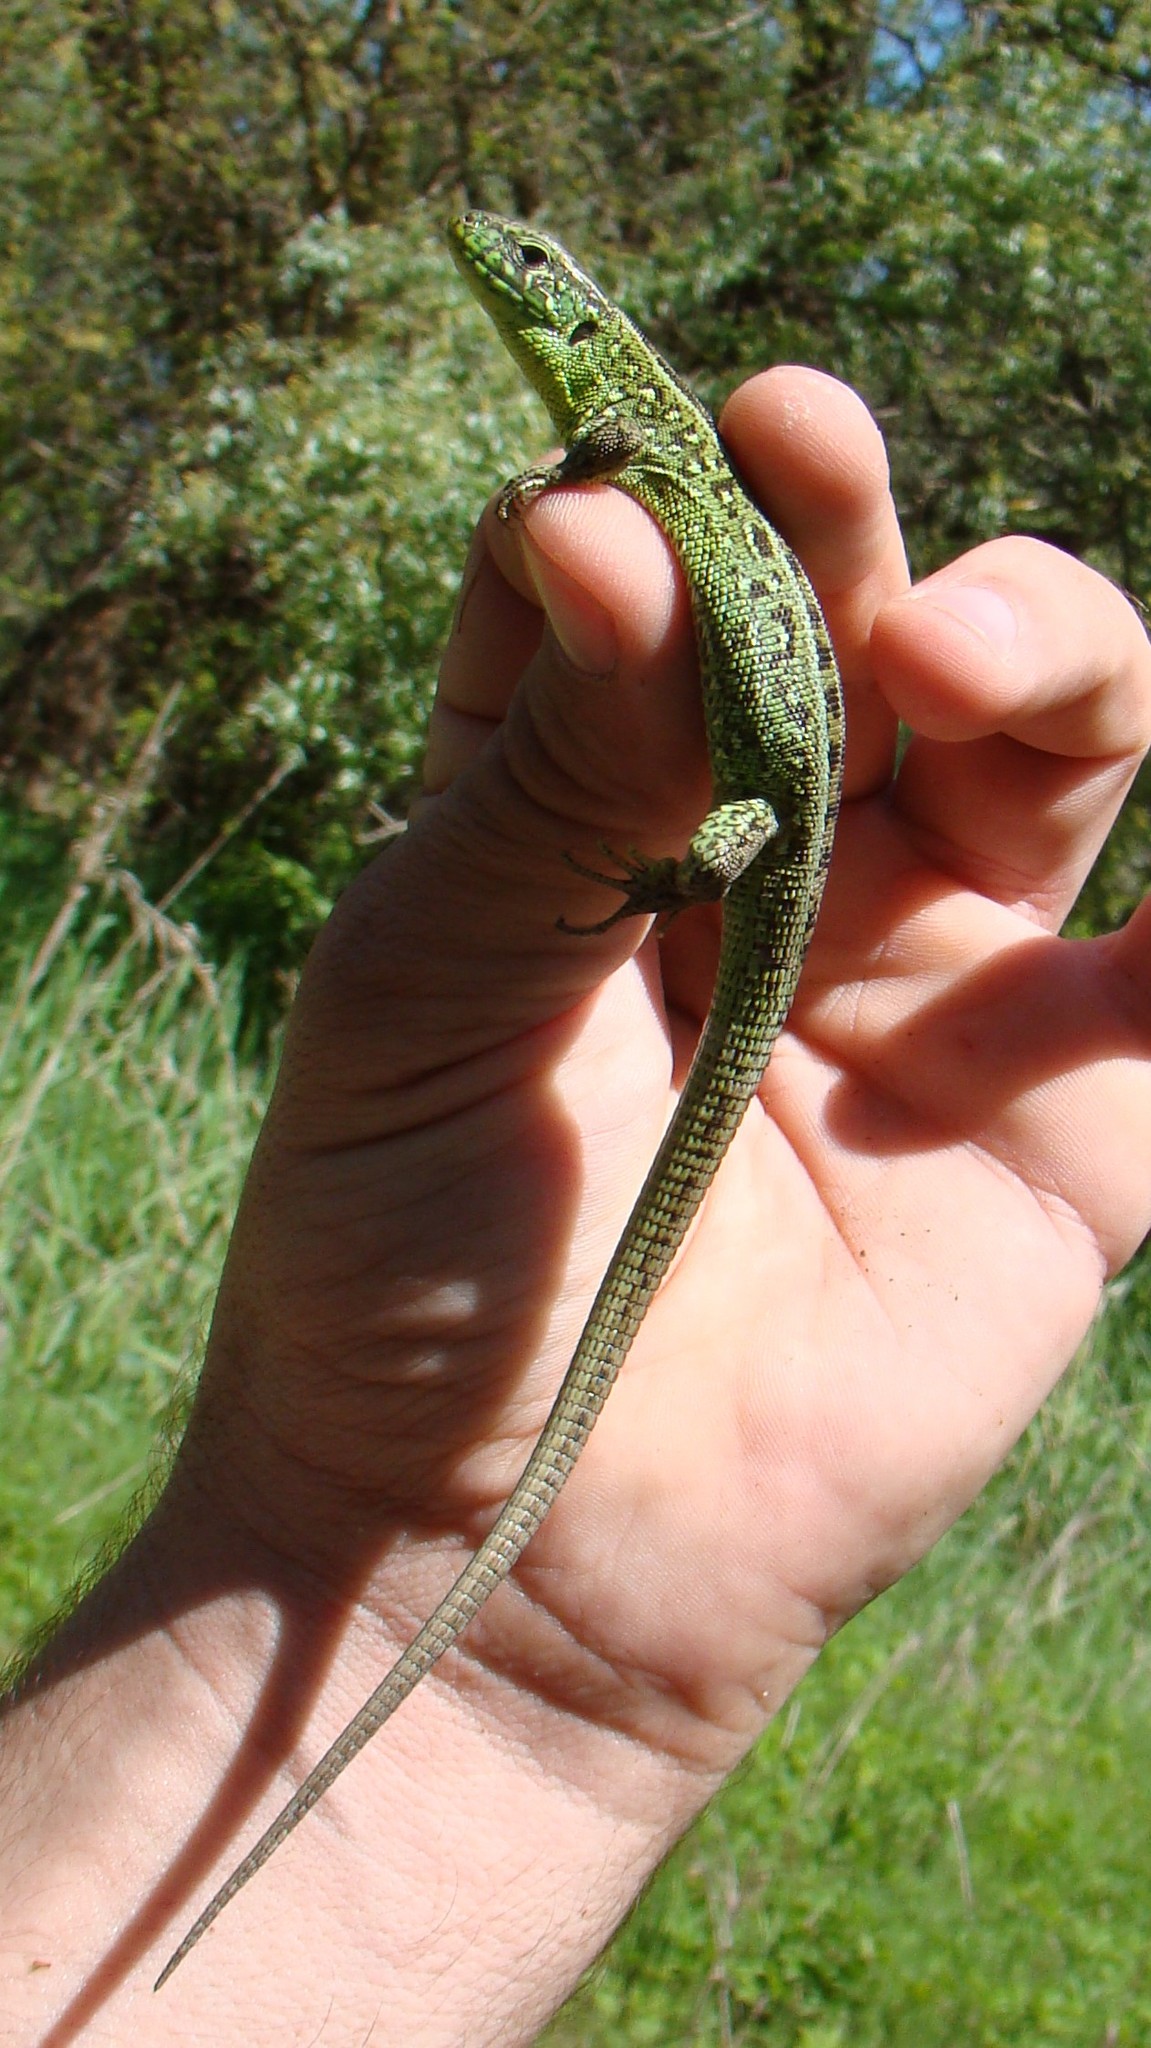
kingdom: Animalia
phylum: Chordata
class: Squamata
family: Lacertidae
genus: Lacerta
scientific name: Lacerta agilis
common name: Sand lizard
